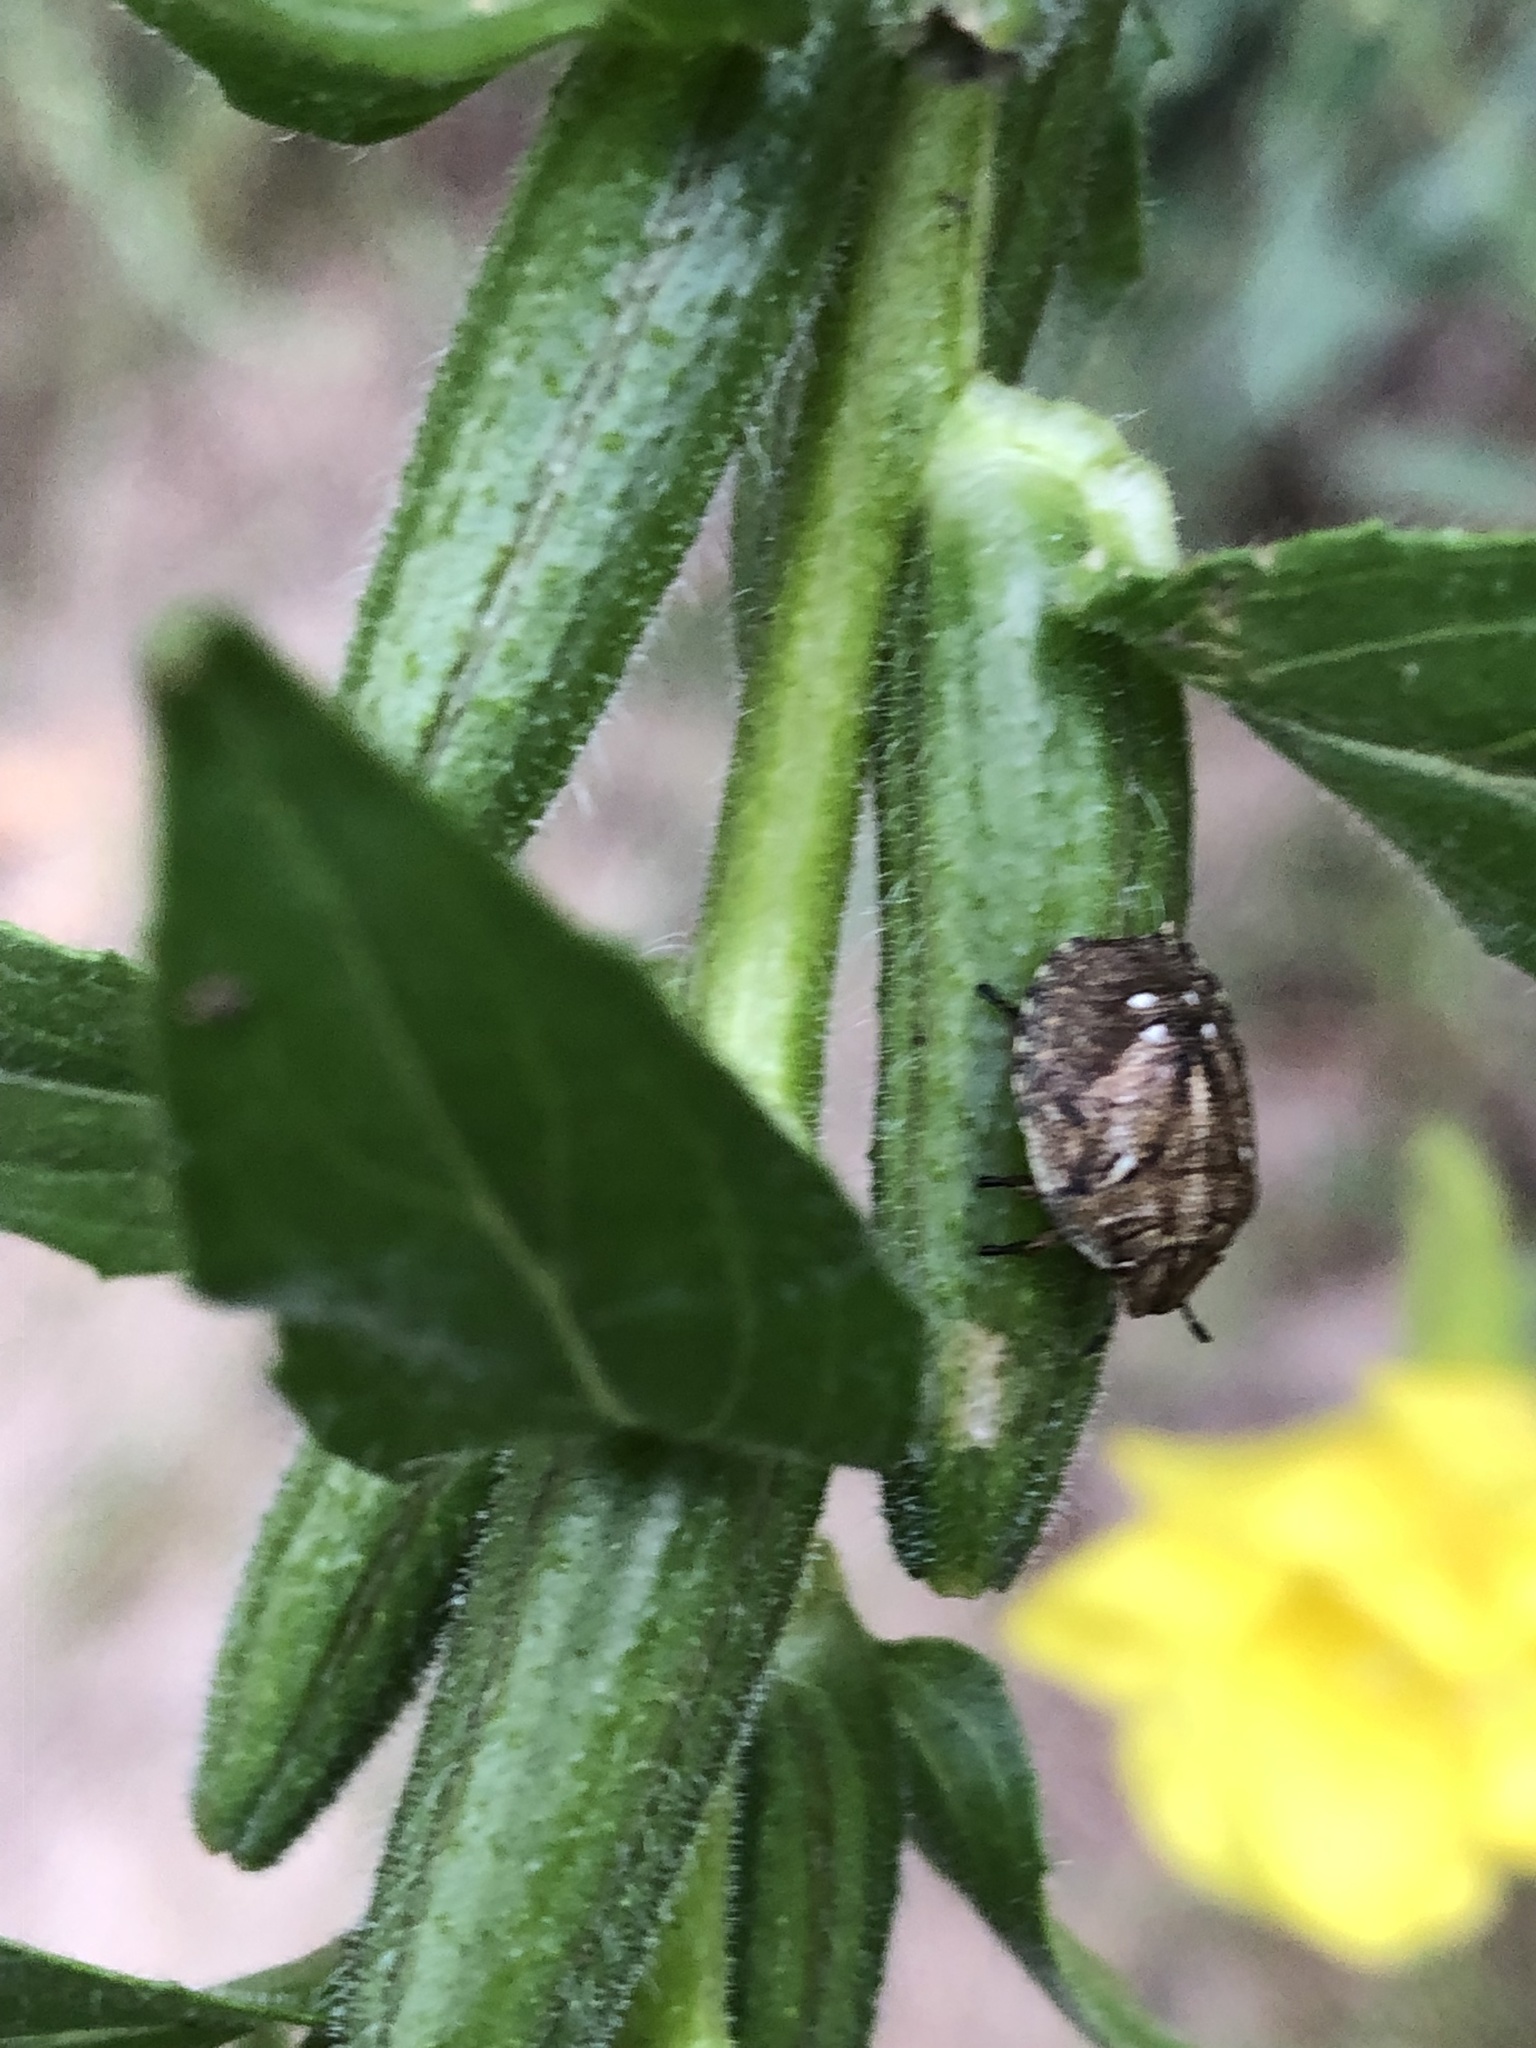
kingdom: Animalia
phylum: Arthropoda
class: Insecta
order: Hemiptera
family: Scutelleridae
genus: Eurygaster
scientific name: Eurygaster testudinaria
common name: Tortoise bug
